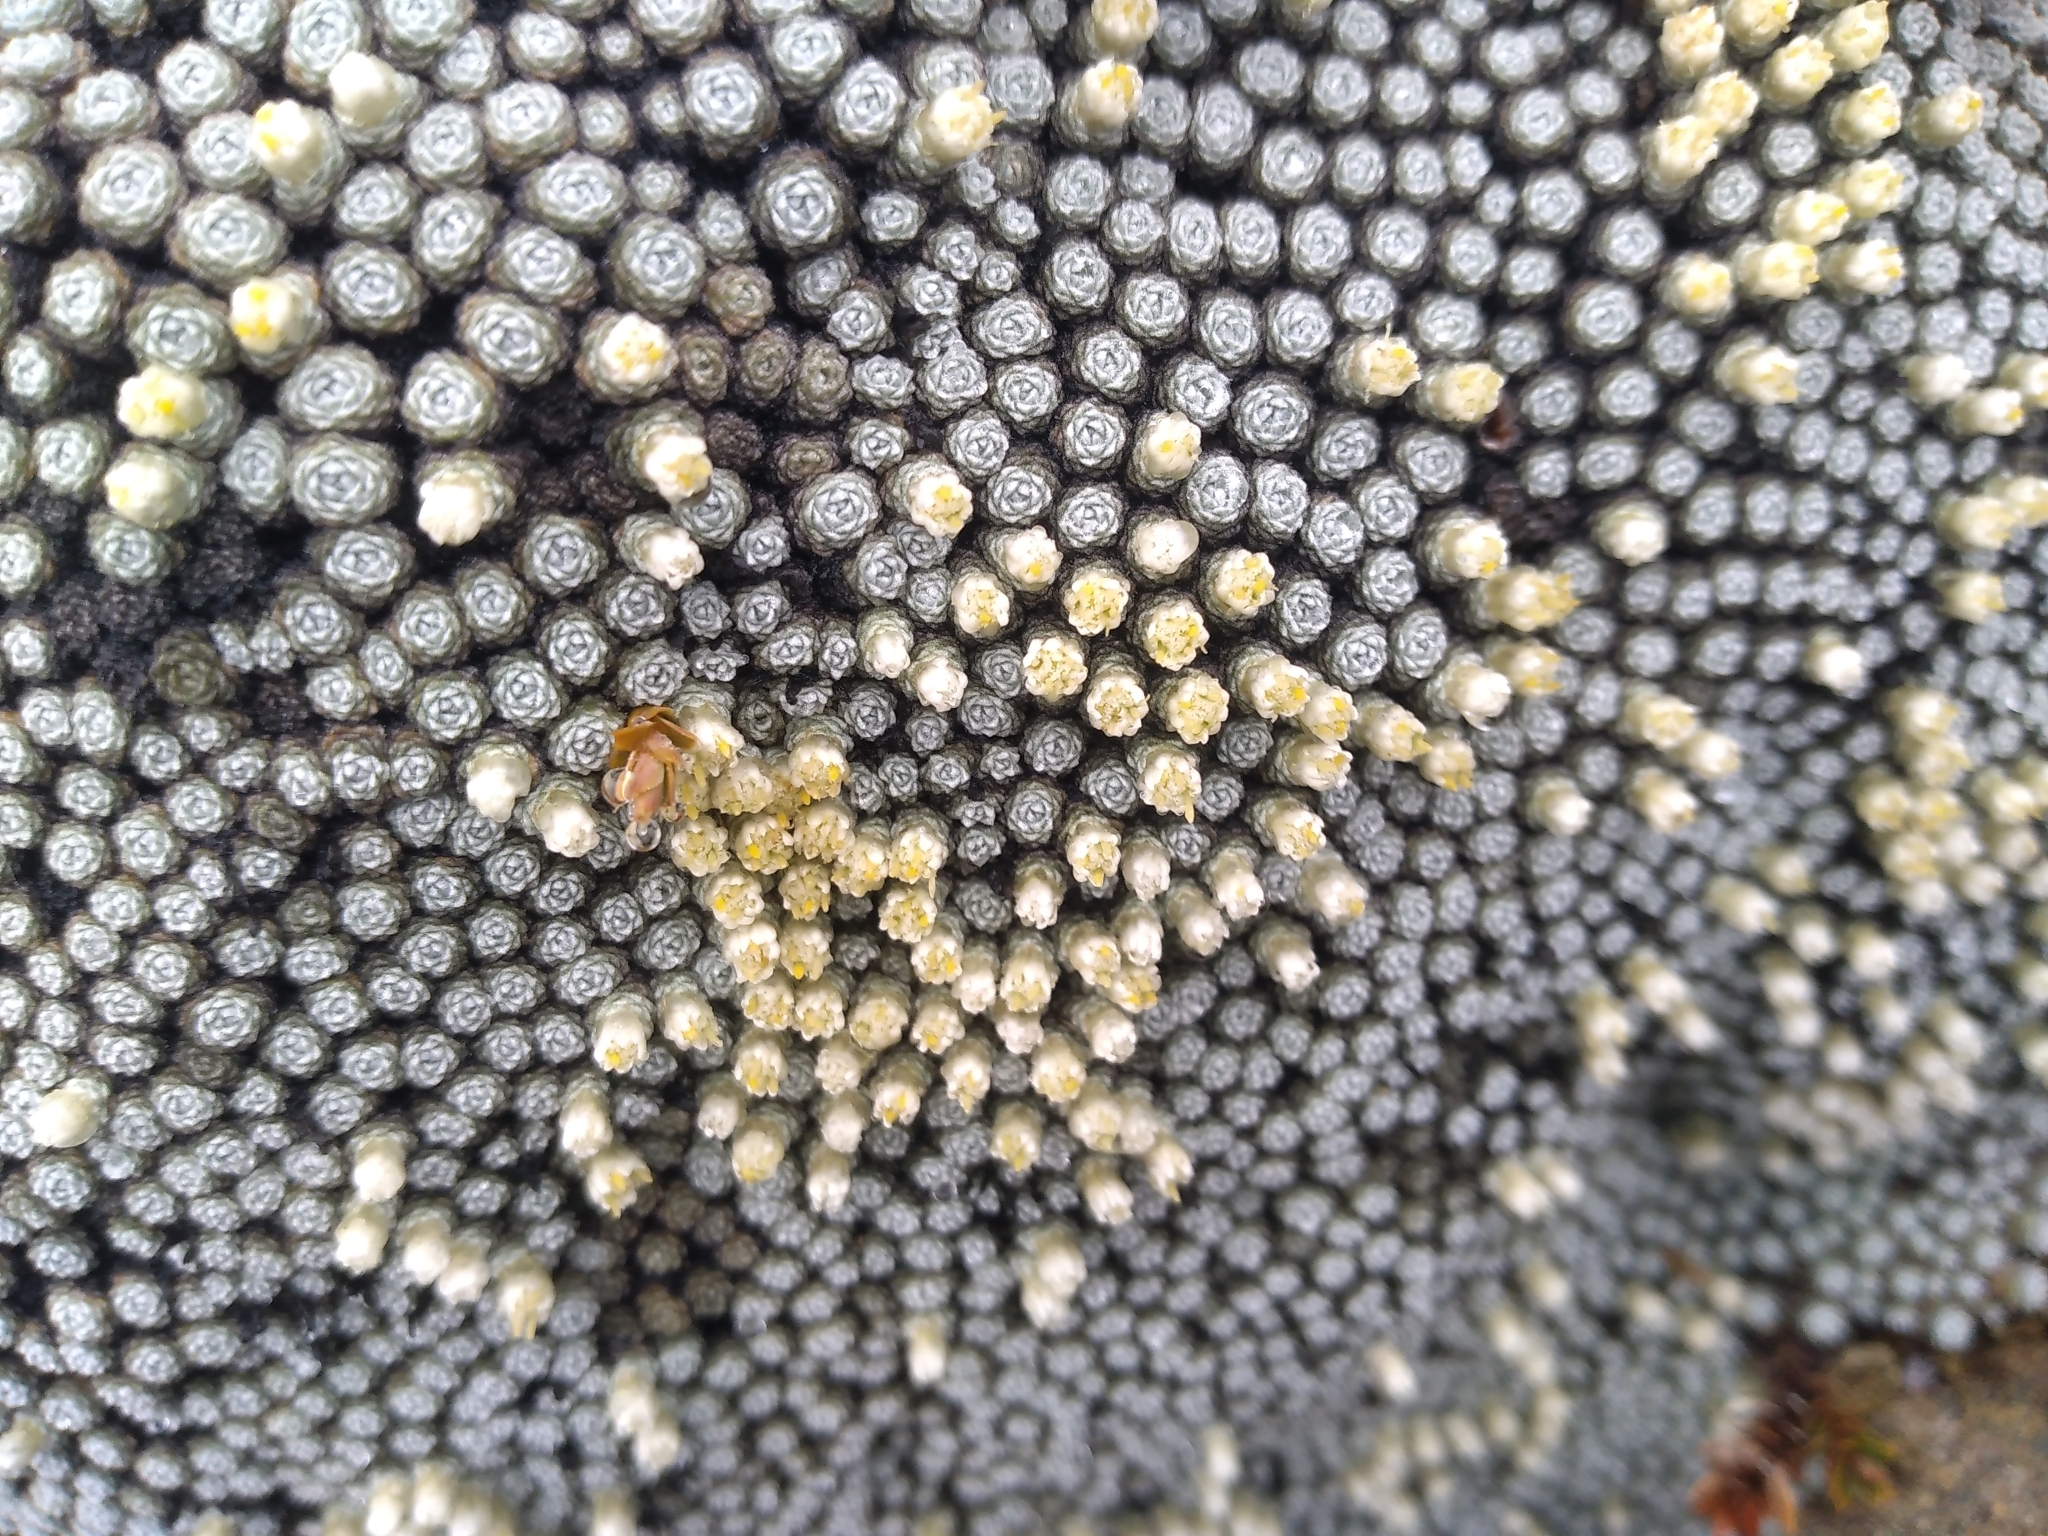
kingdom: Plantae
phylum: Tracheophyta
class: Magnoliopsida
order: Asterales
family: Asteraceae
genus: Raoulia
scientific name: Raoulia bryoides
